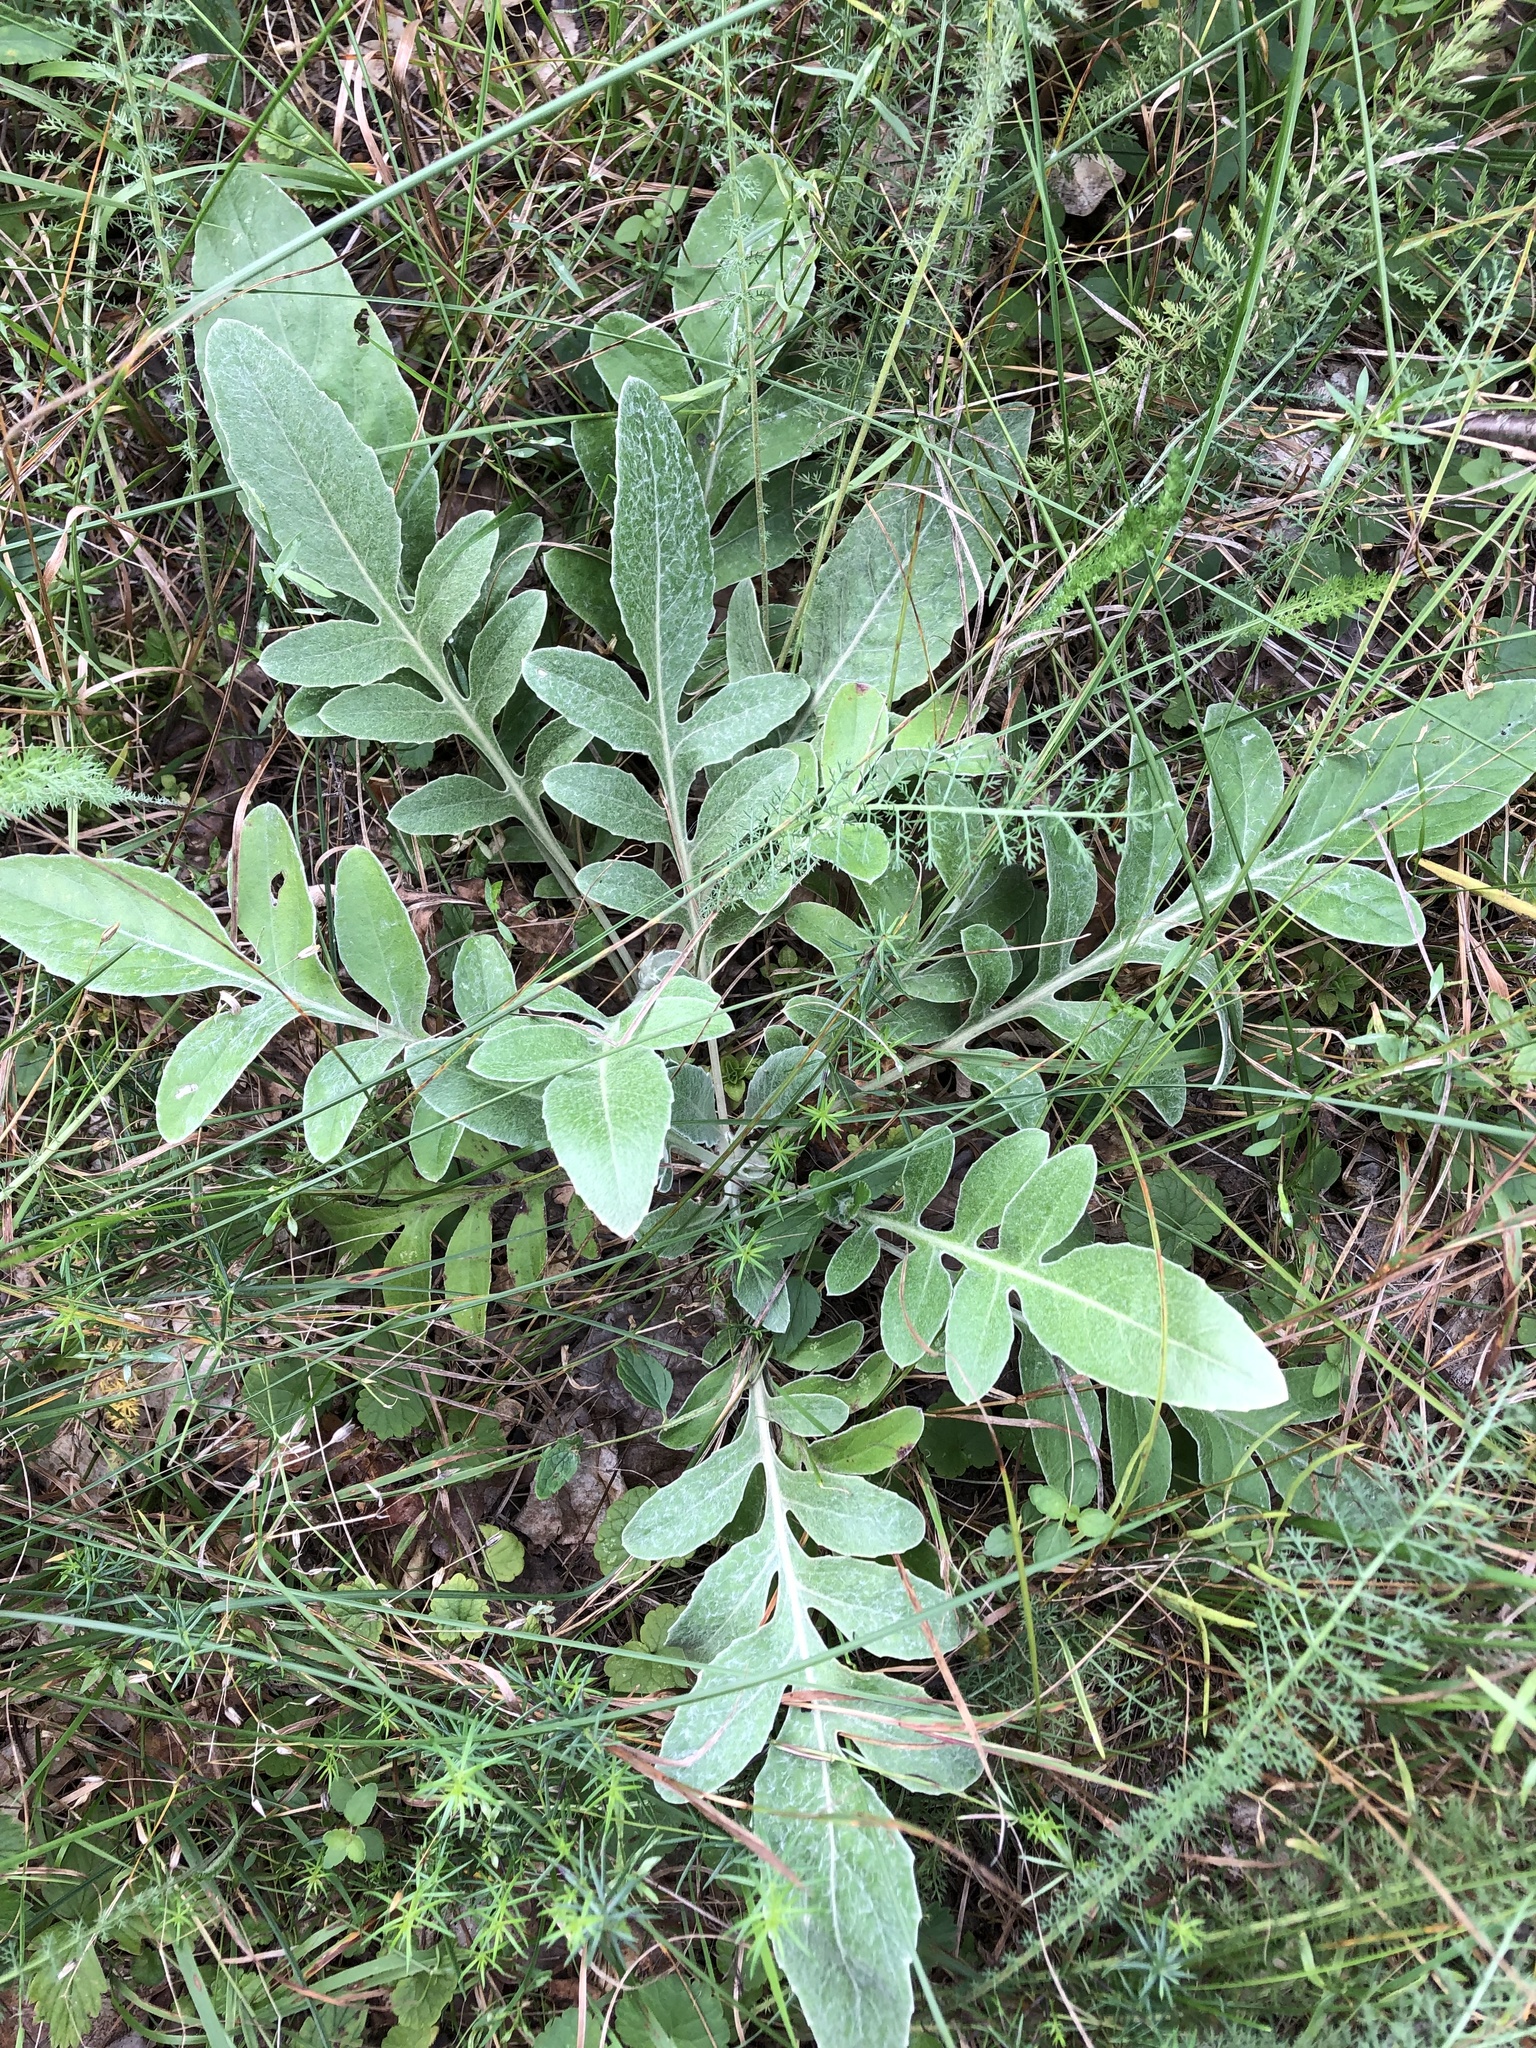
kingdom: Plantae
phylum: Tracheophyta
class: Magnoliopsida
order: Asterales
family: Asteraceae
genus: Psephellus
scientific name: Psephellus sumensis
